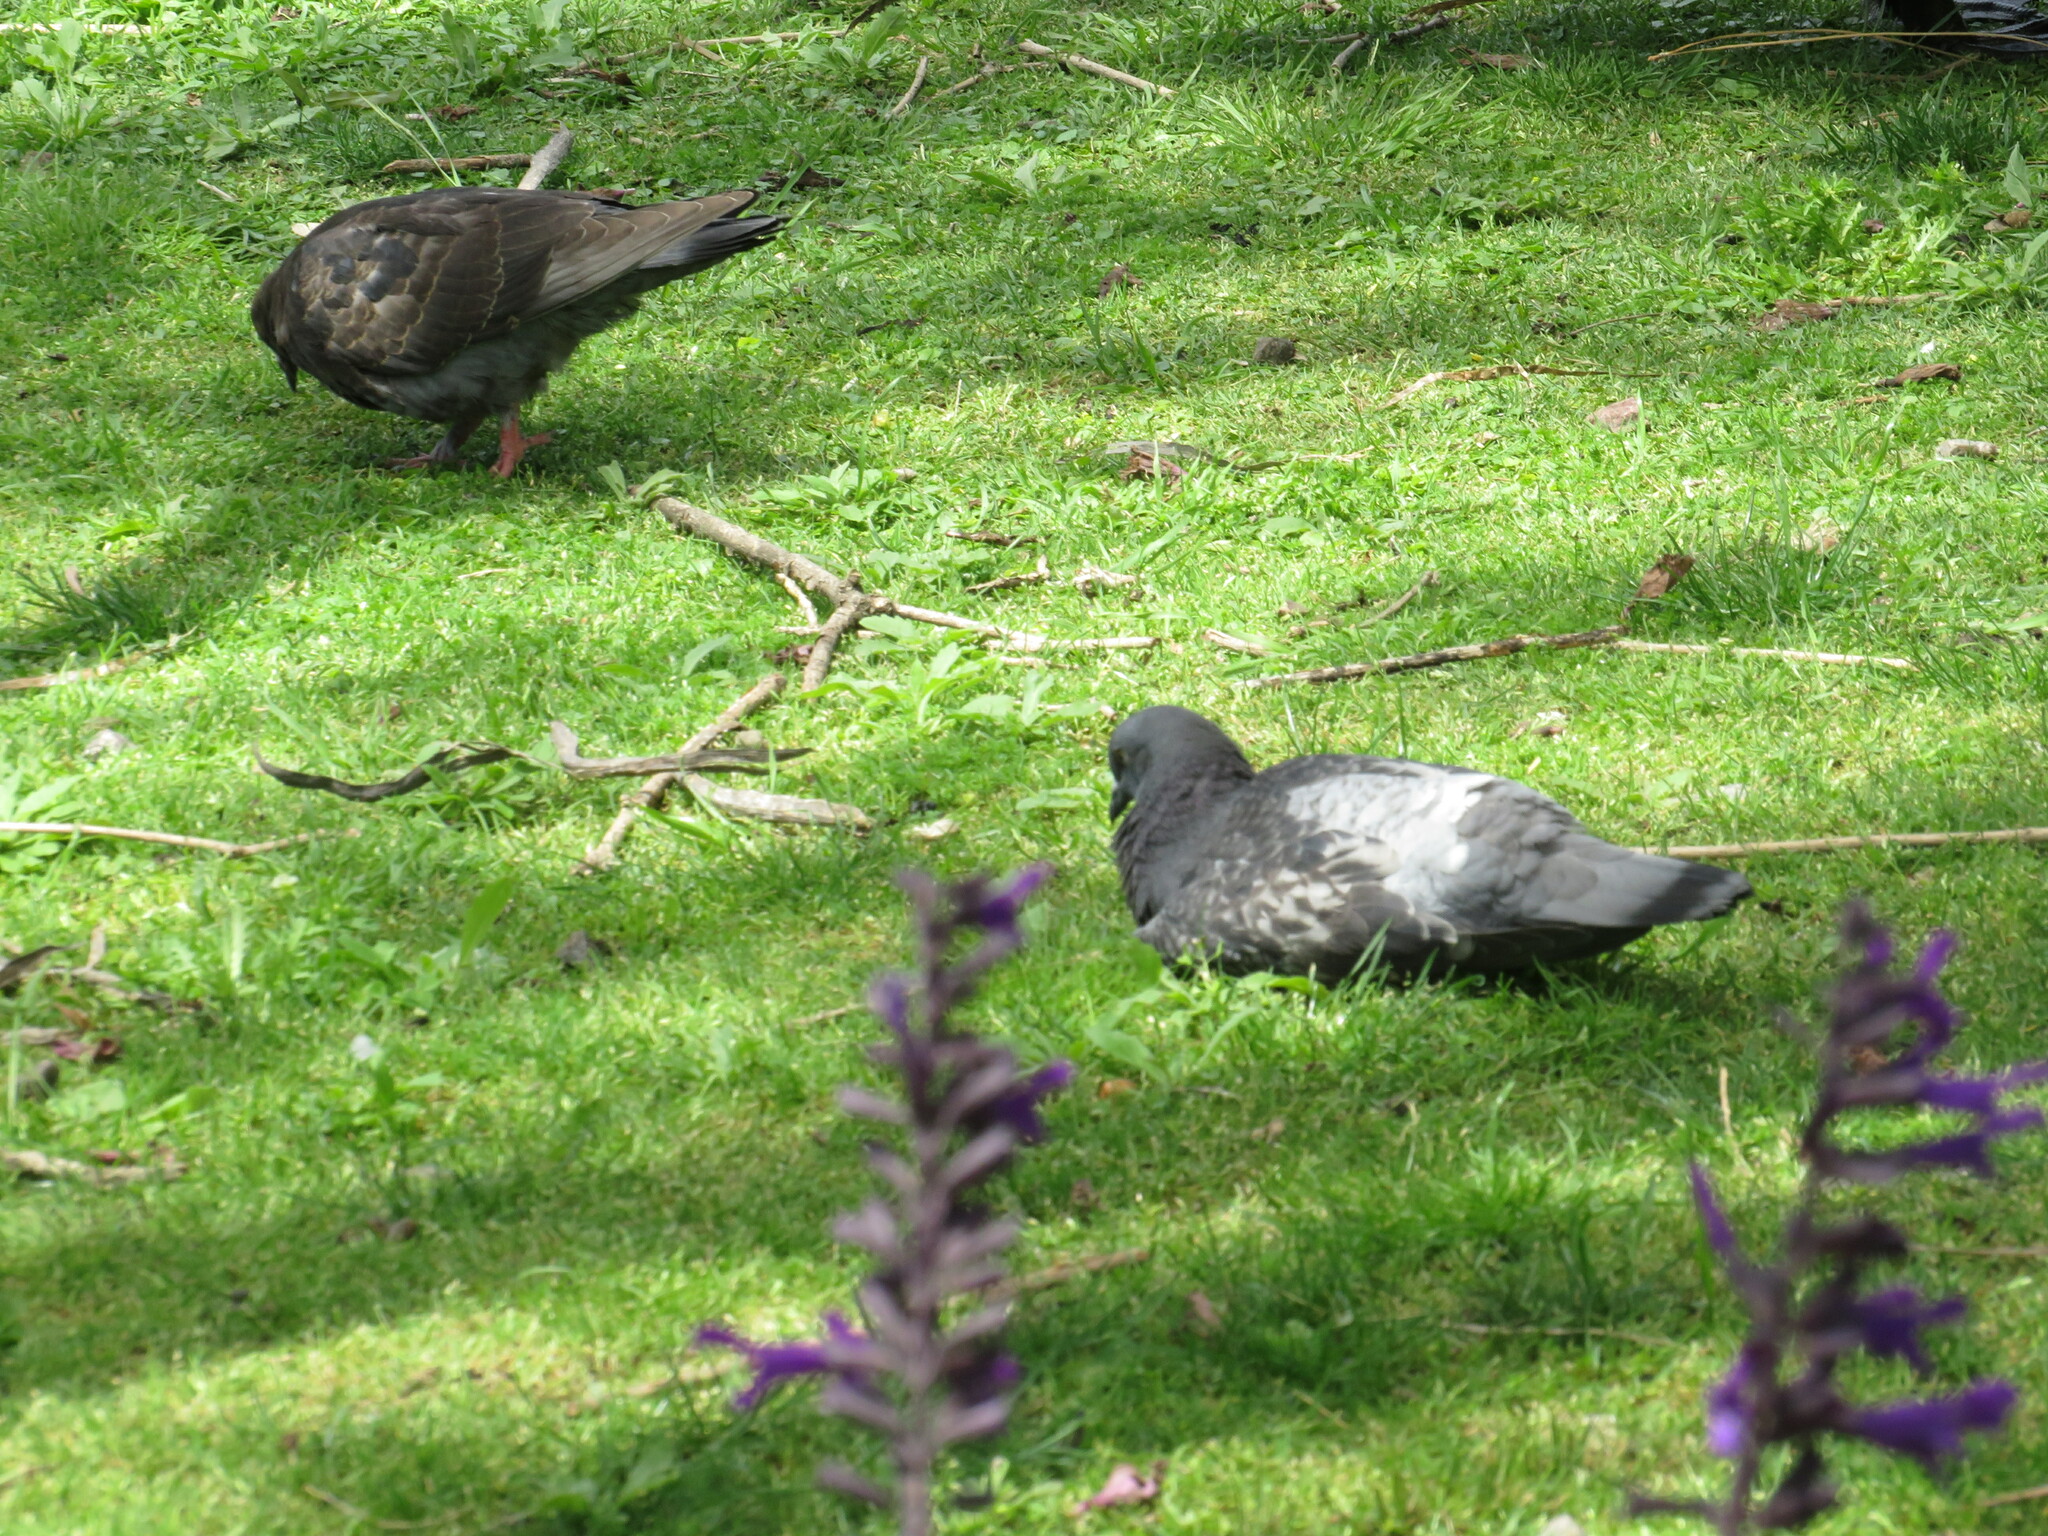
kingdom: Animalia
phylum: Chordata
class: Aves
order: Columbiformes
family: Columbidae
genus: Columba
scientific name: Columba livia
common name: Rock pigeon
